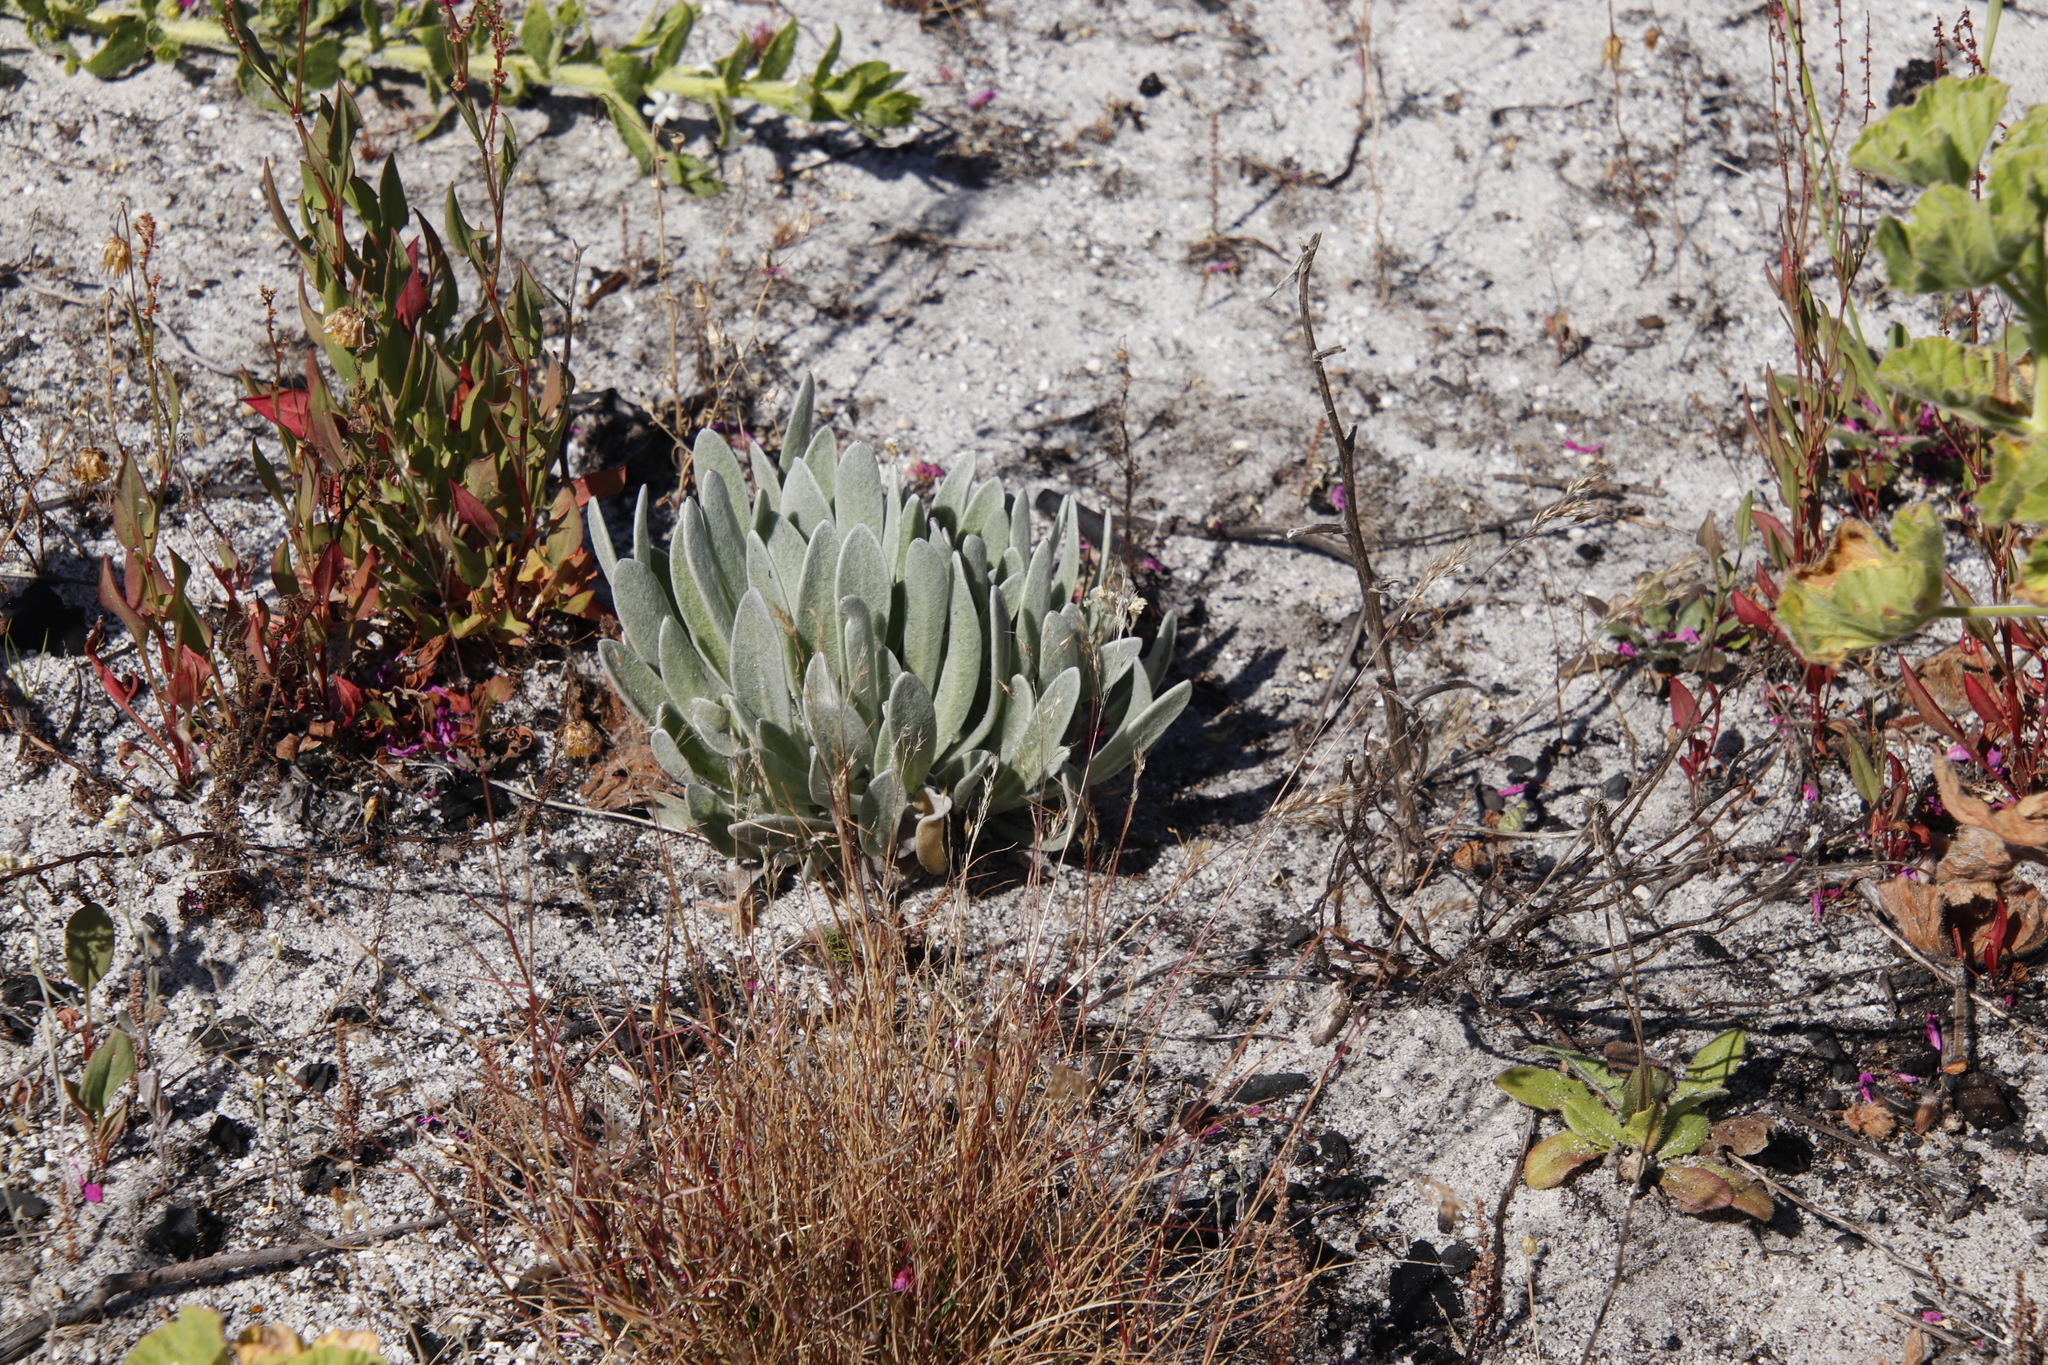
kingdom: Plantae
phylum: Tracheophyta
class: Magnoliopsida
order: Asterales
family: Asteraceae
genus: Syncarpha
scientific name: Syncarpha vestita
